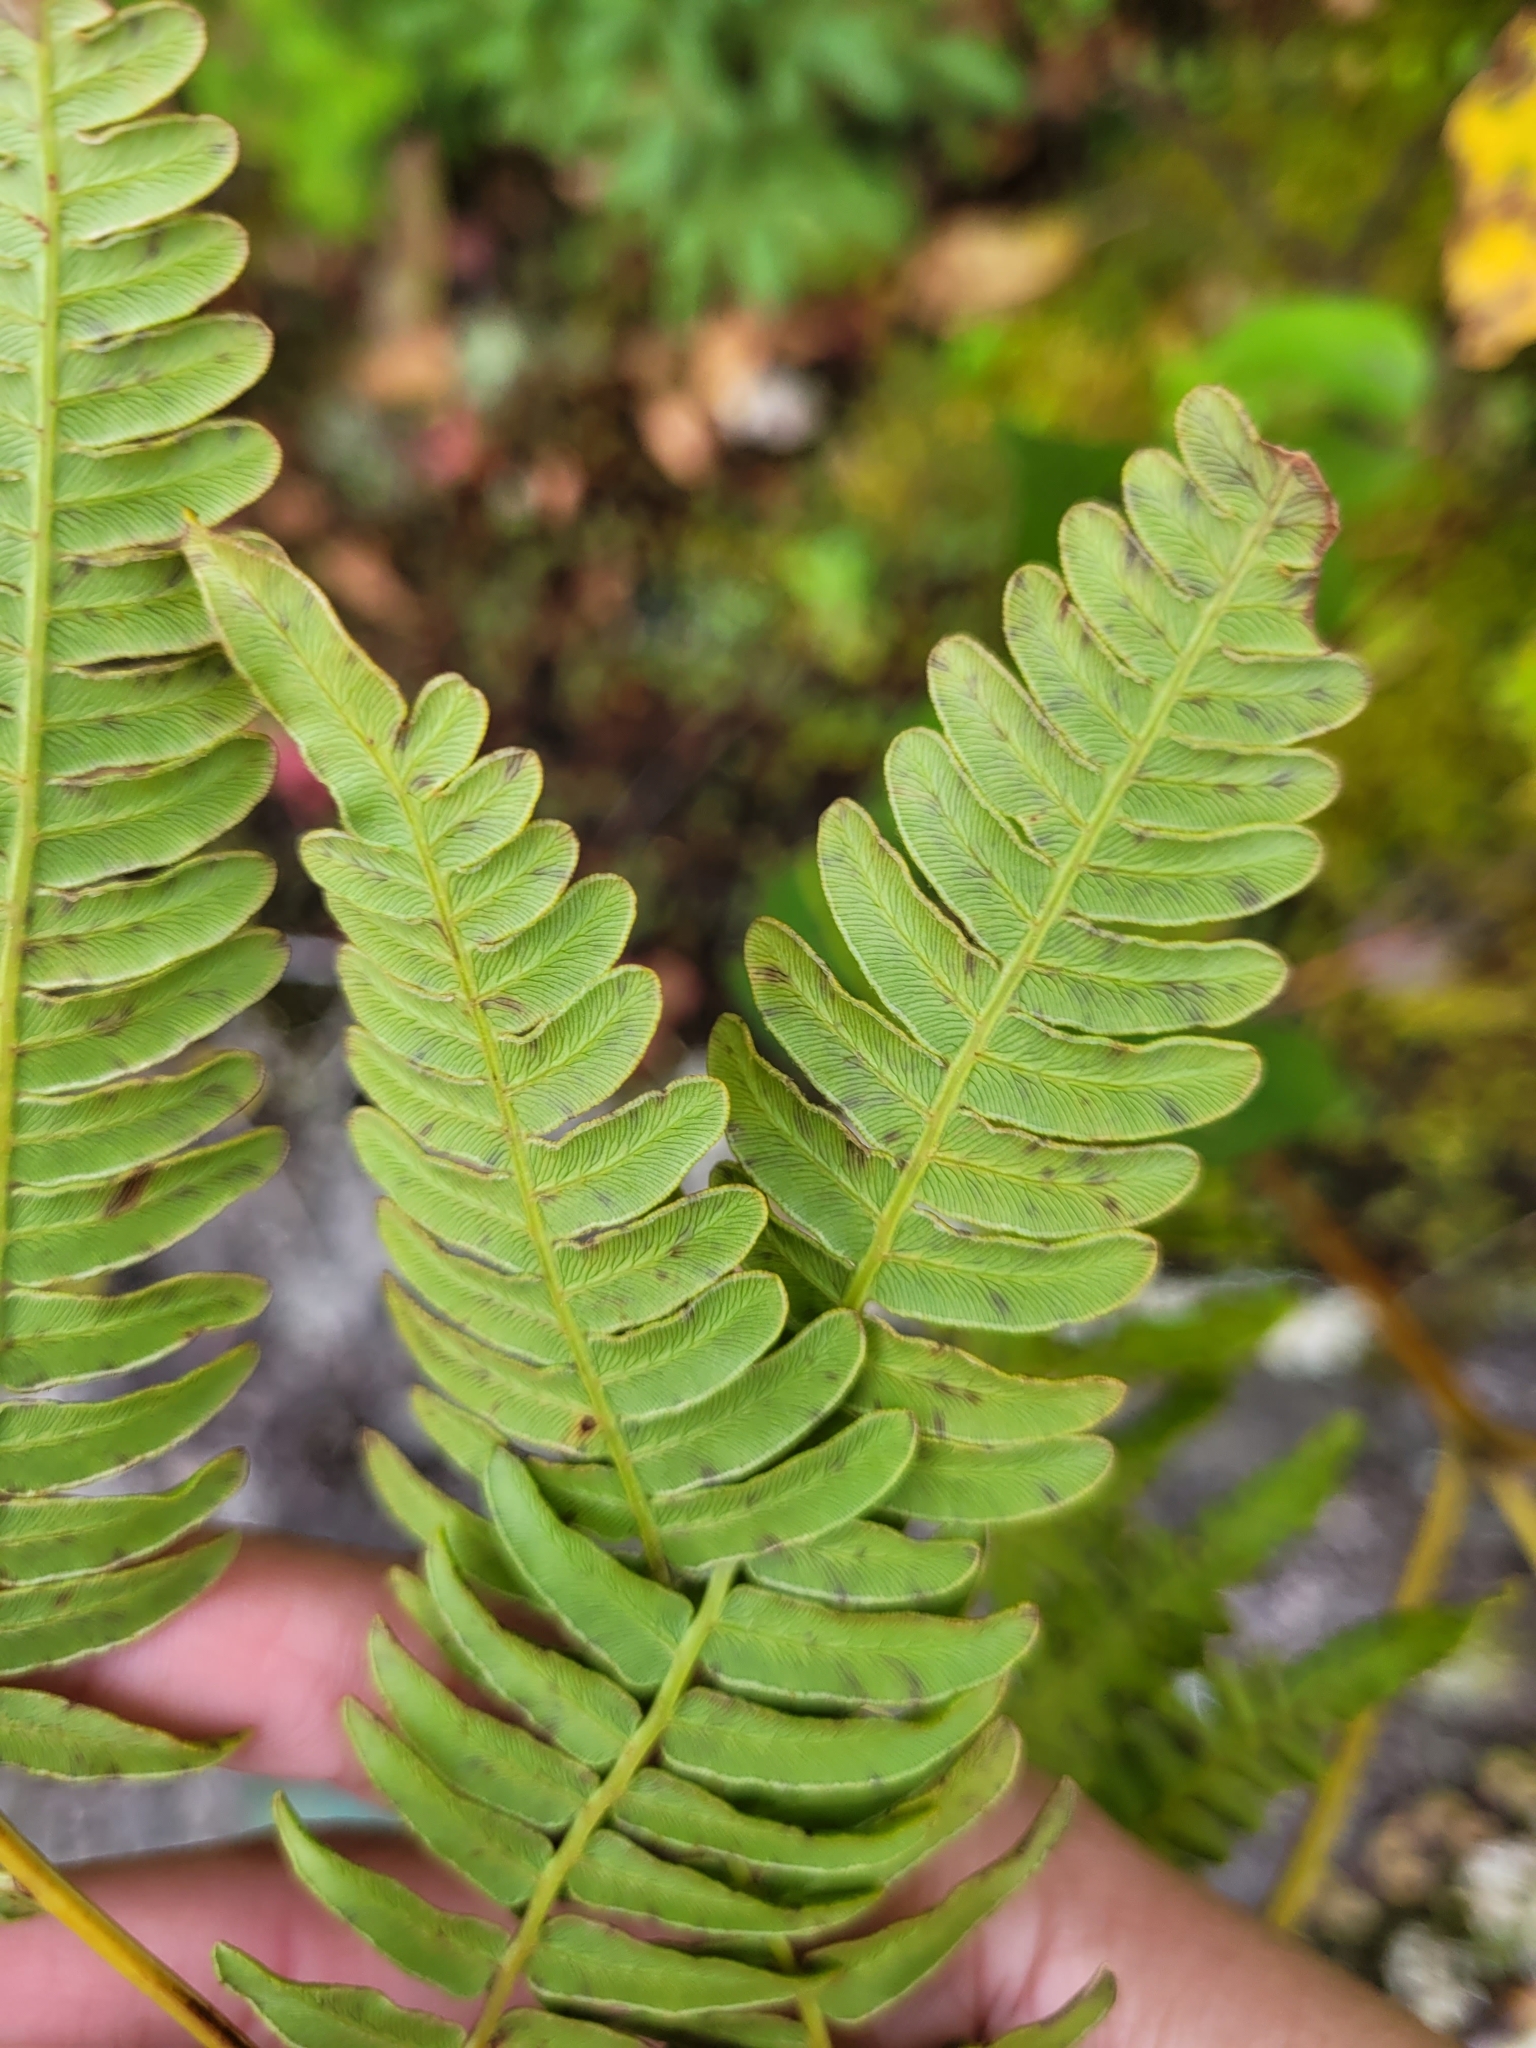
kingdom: Plantae
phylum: Tracheophyta
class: Polypodiopsida
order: Polypodiales
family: Dennstaedtiaceae
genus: Pteridium
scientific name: Pteridium aquilinum
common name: Bracken
